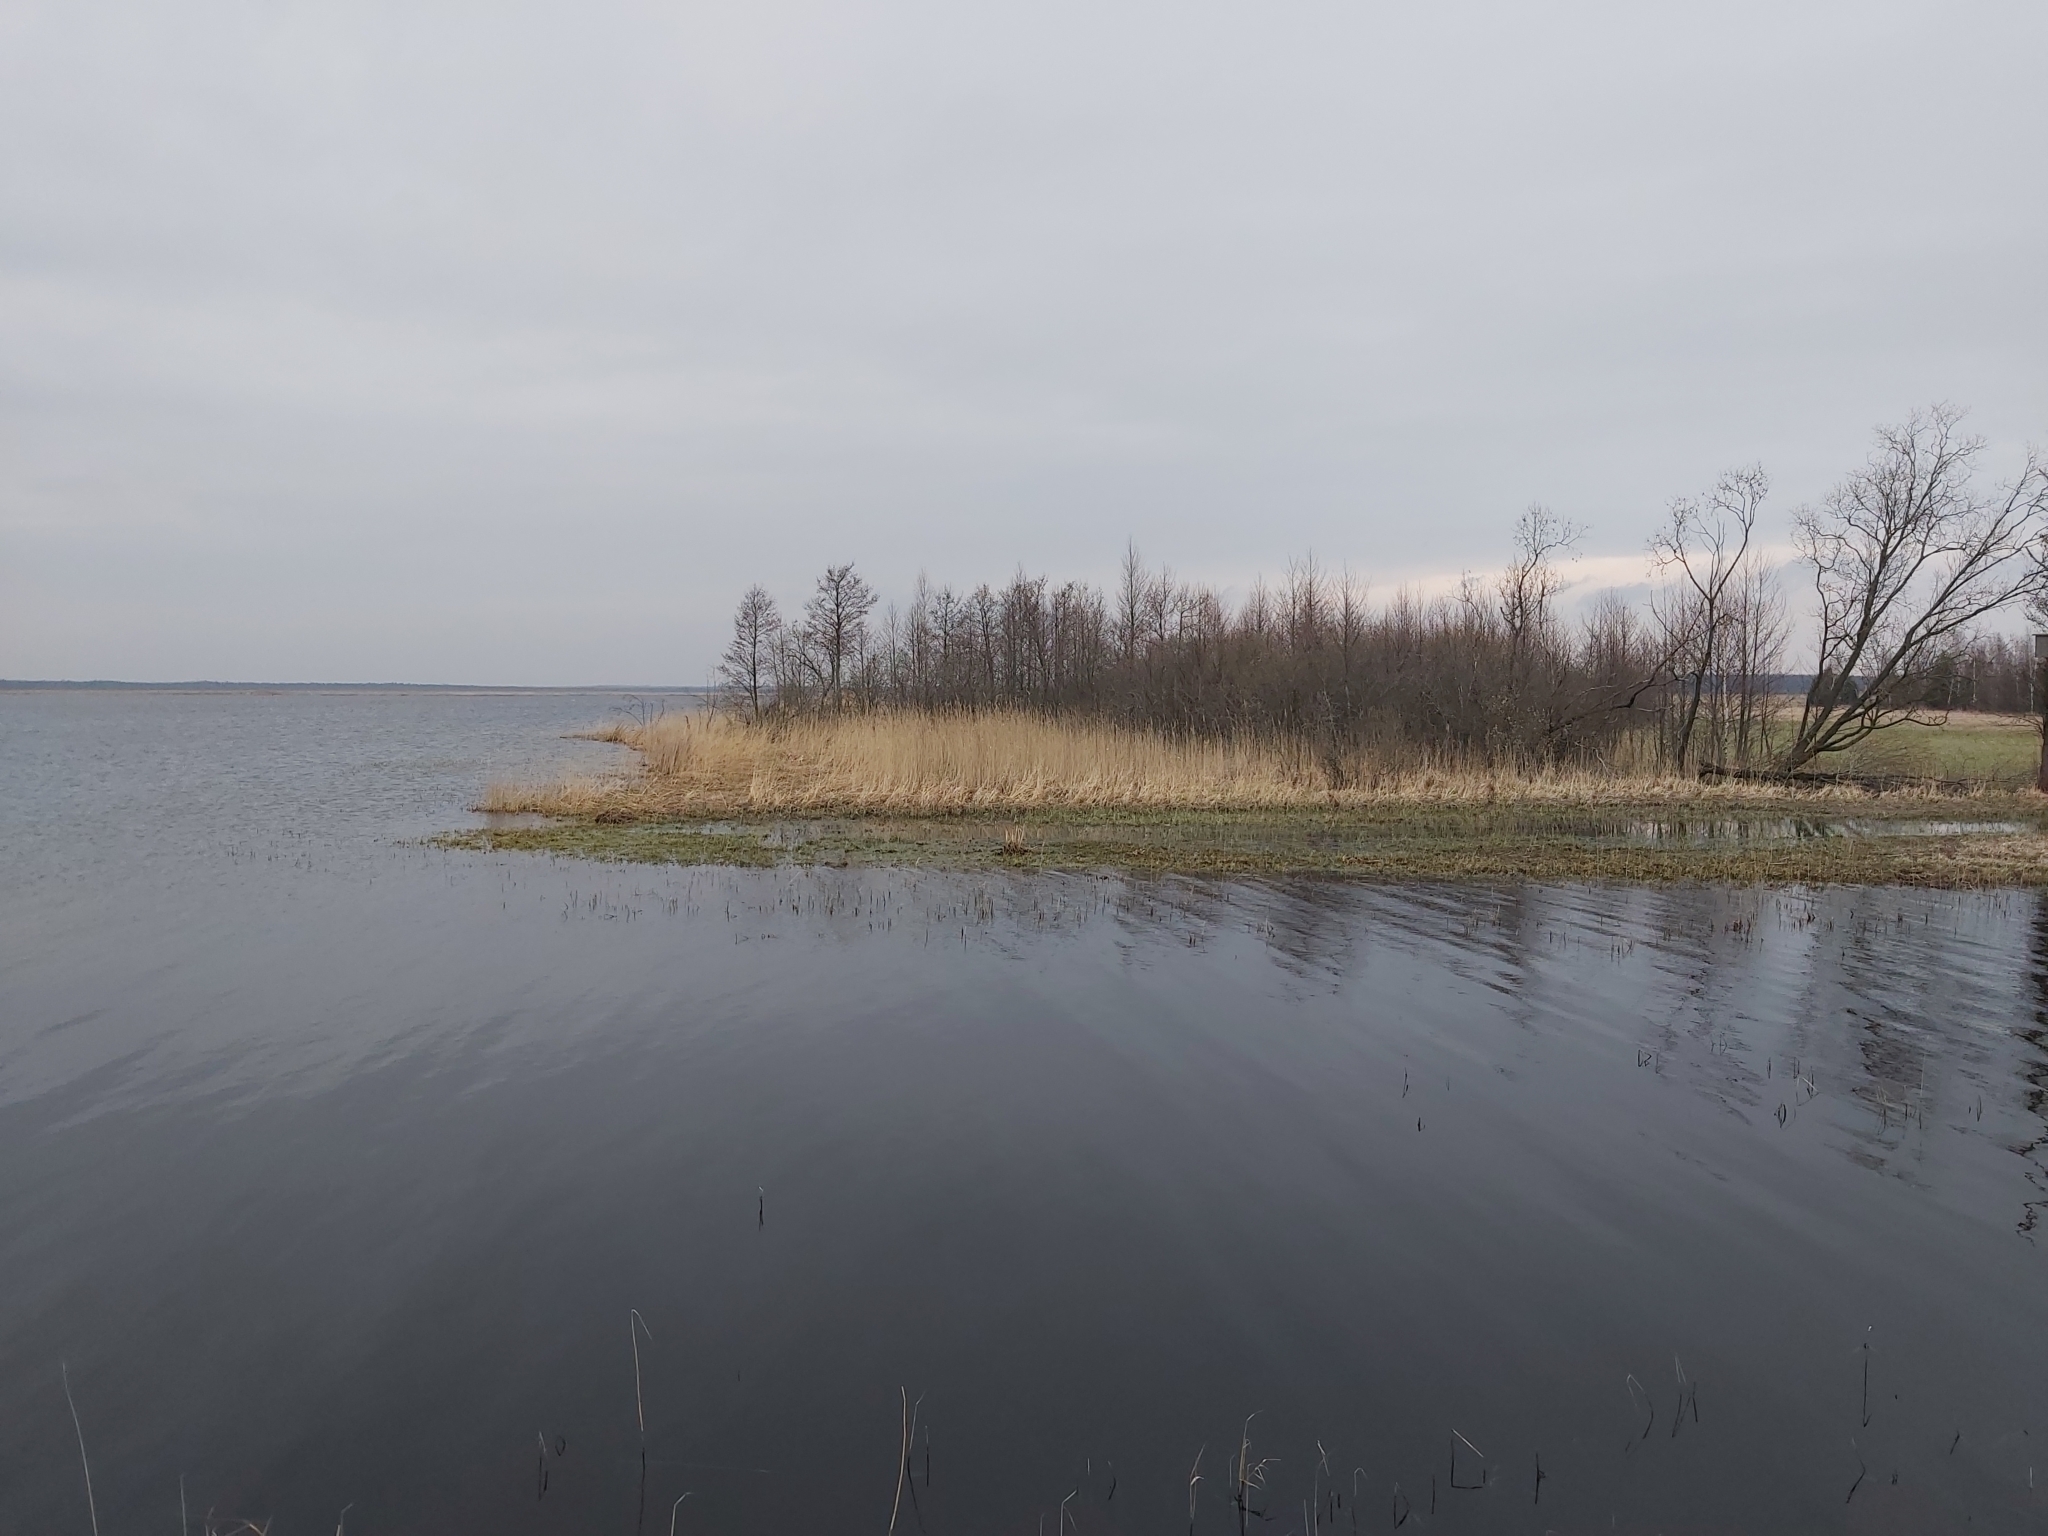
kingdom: Animalia
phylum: Chordata
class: Aves
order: Passeriformes
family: Emberizidae
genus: Emberiza
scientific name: Emberiza citrinella
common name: Yellowhammer
